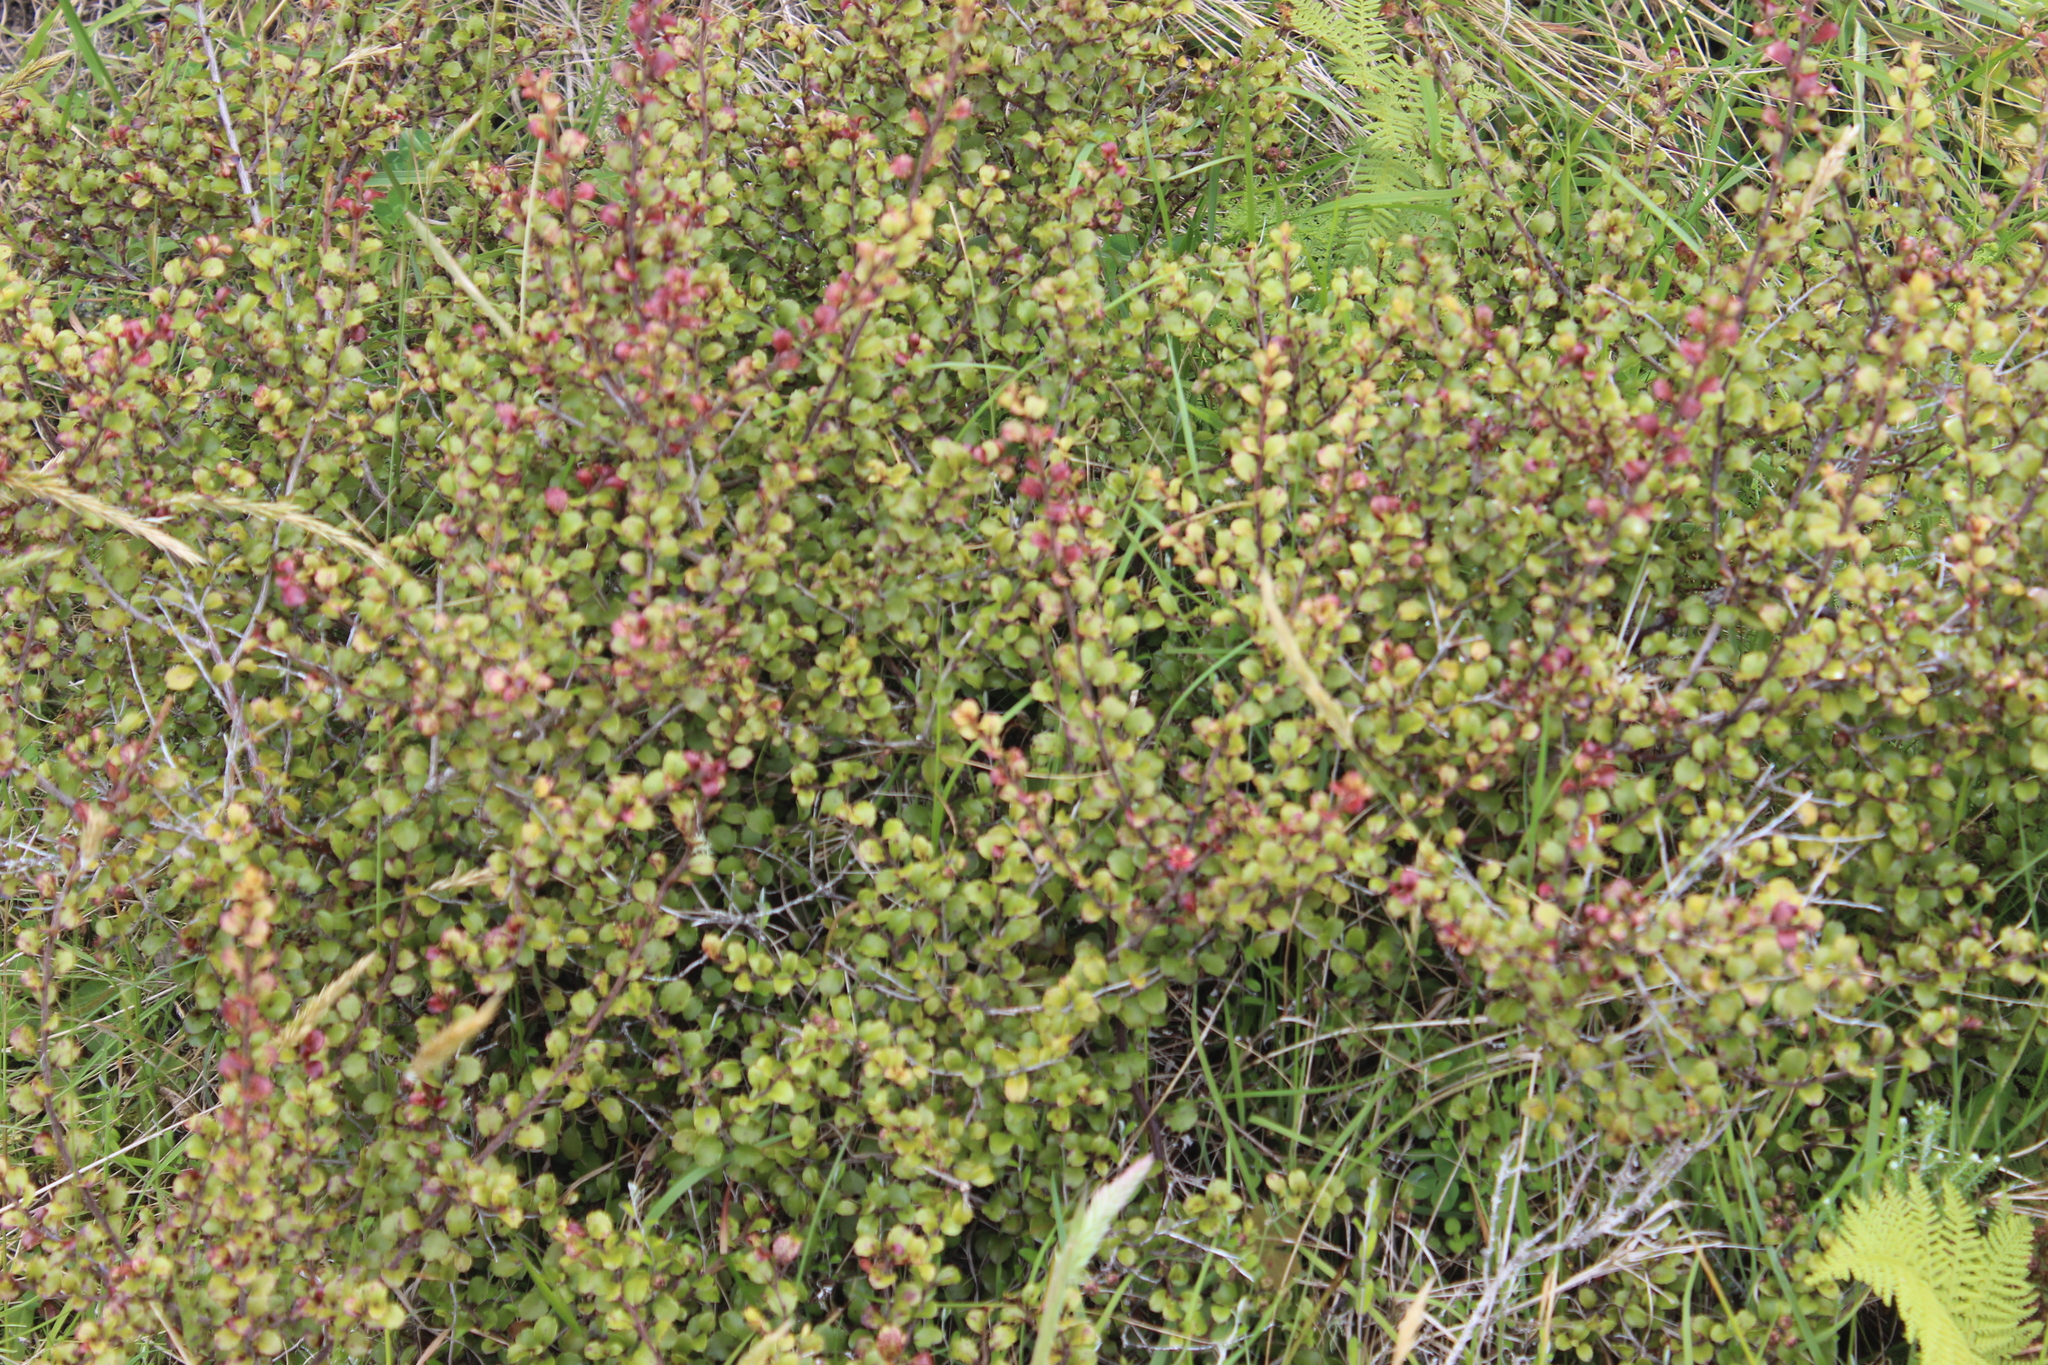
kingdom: Plantae
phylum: Tracheophyta
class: Magnoliopsida
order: Ericales
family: Ericaceae
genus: Gaultheria
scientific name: Gaultheria antipoda
